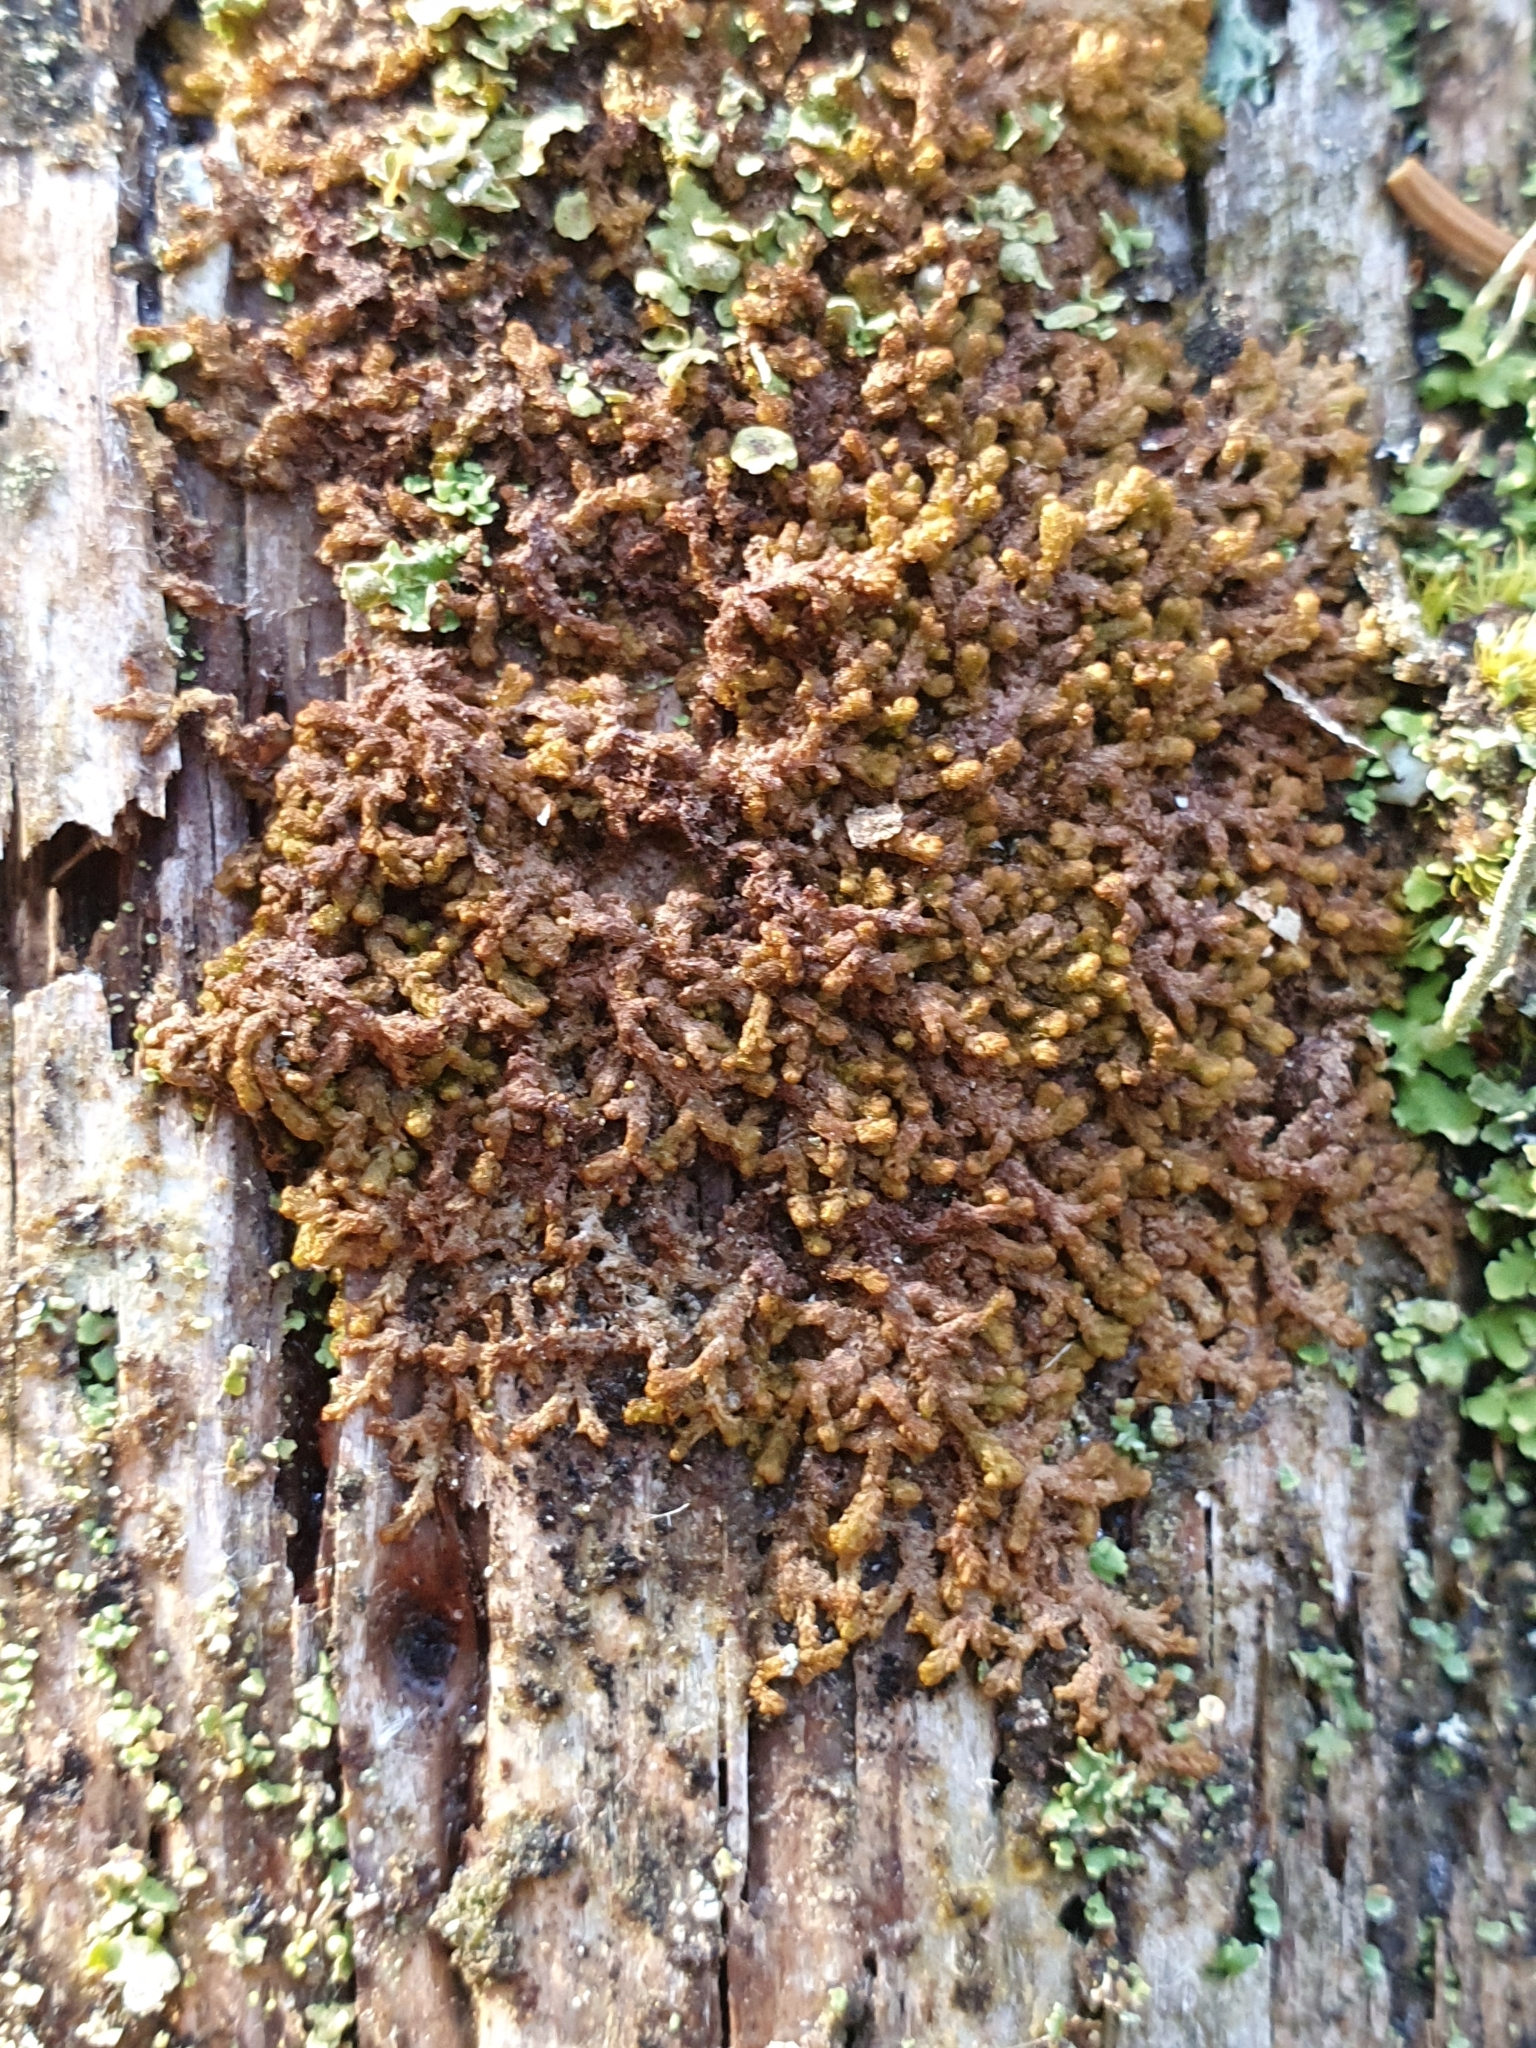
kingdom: Plantae
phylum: Marchantiophyta
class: Jungermanniopsida
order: Ptilidiales
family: Ptilidiaceae
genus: Ptilidium
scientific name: Ptilidium pulcherrimum
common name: Tree fringewort
